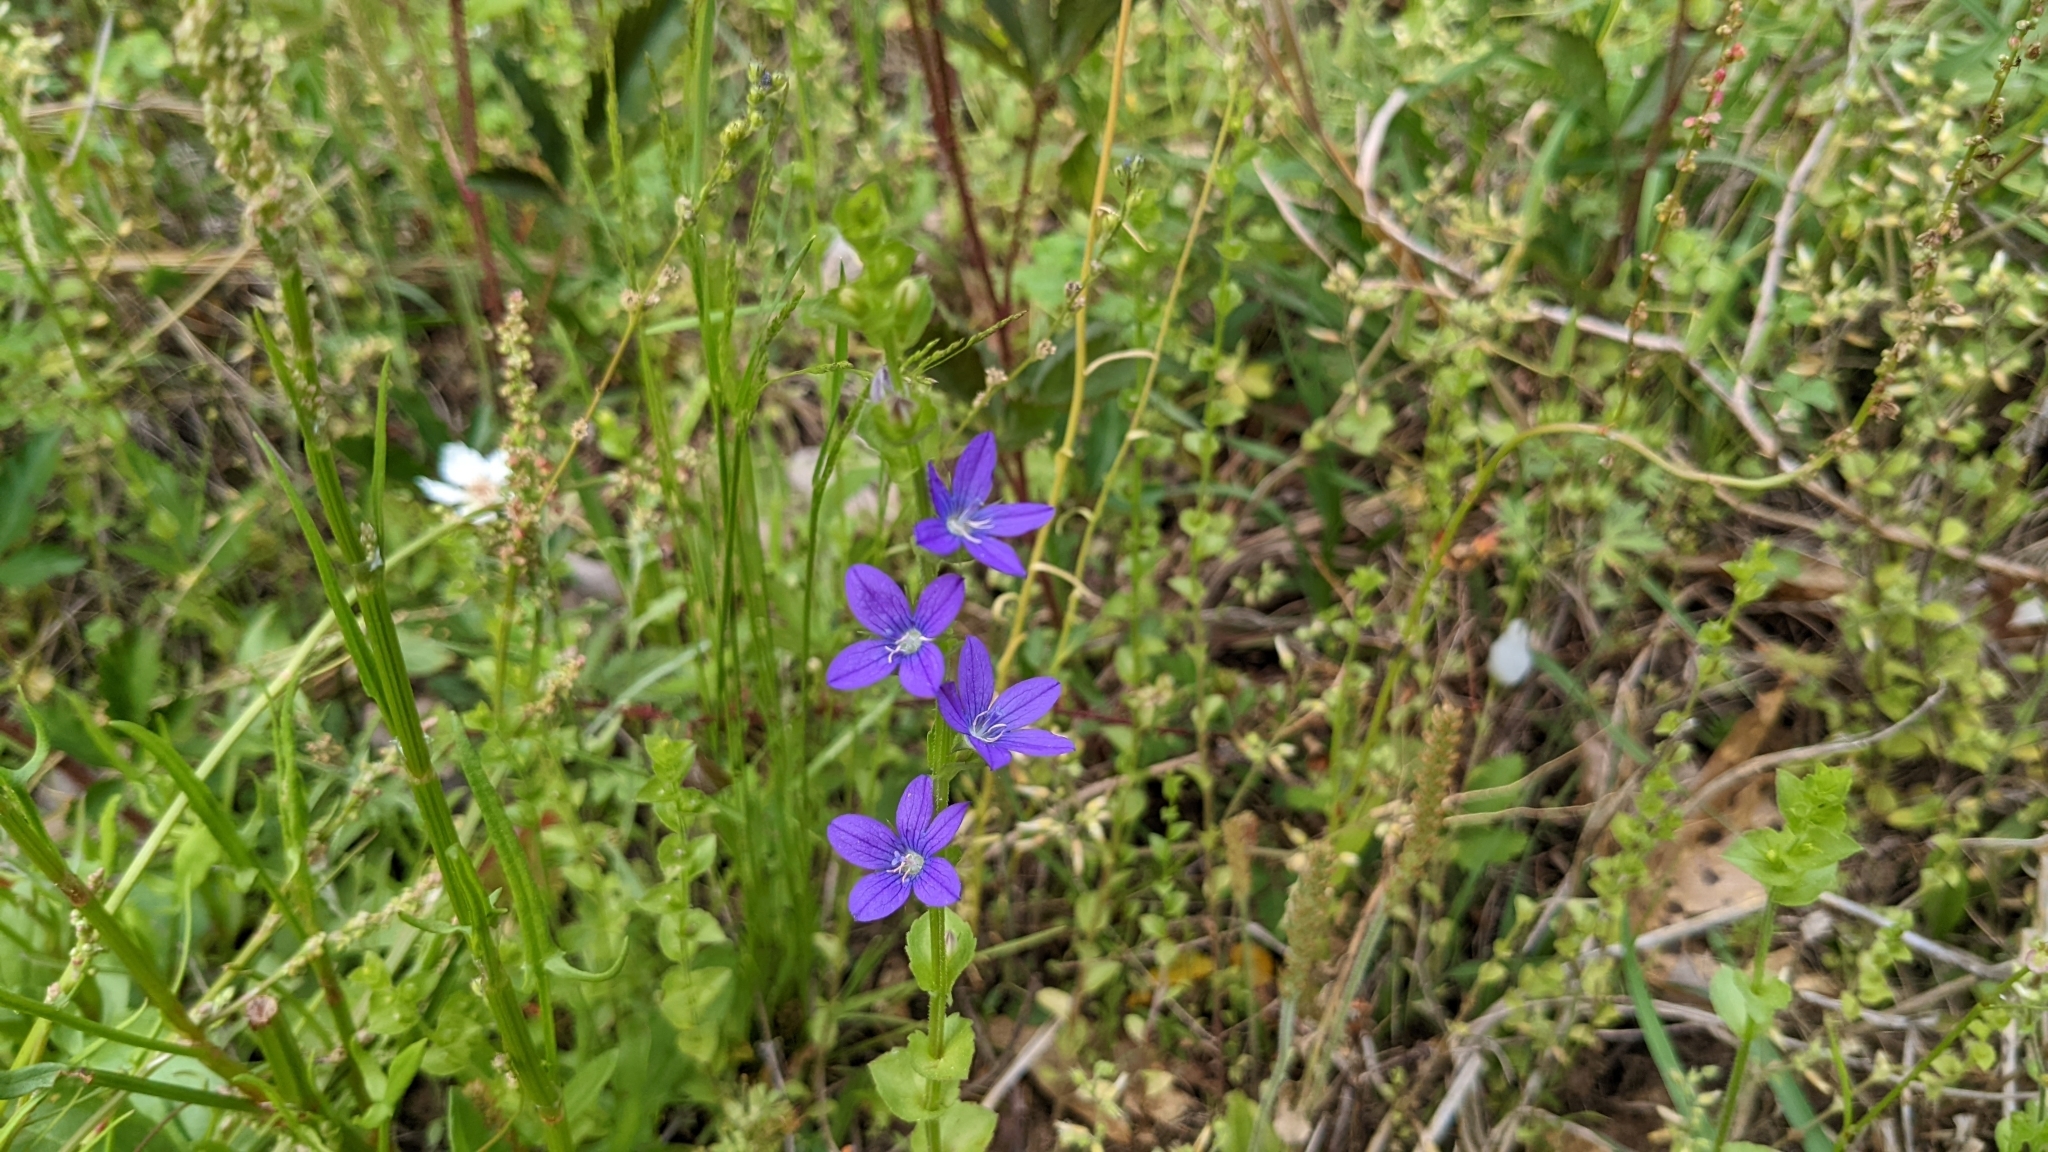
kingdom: Plantae
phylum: Tracheophyta
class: Magnoliopsida
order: Asterales
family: Campanulaceae
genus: Triodanis
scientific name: Triodanis perfoliata
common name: Clasping venus' looking-glass
